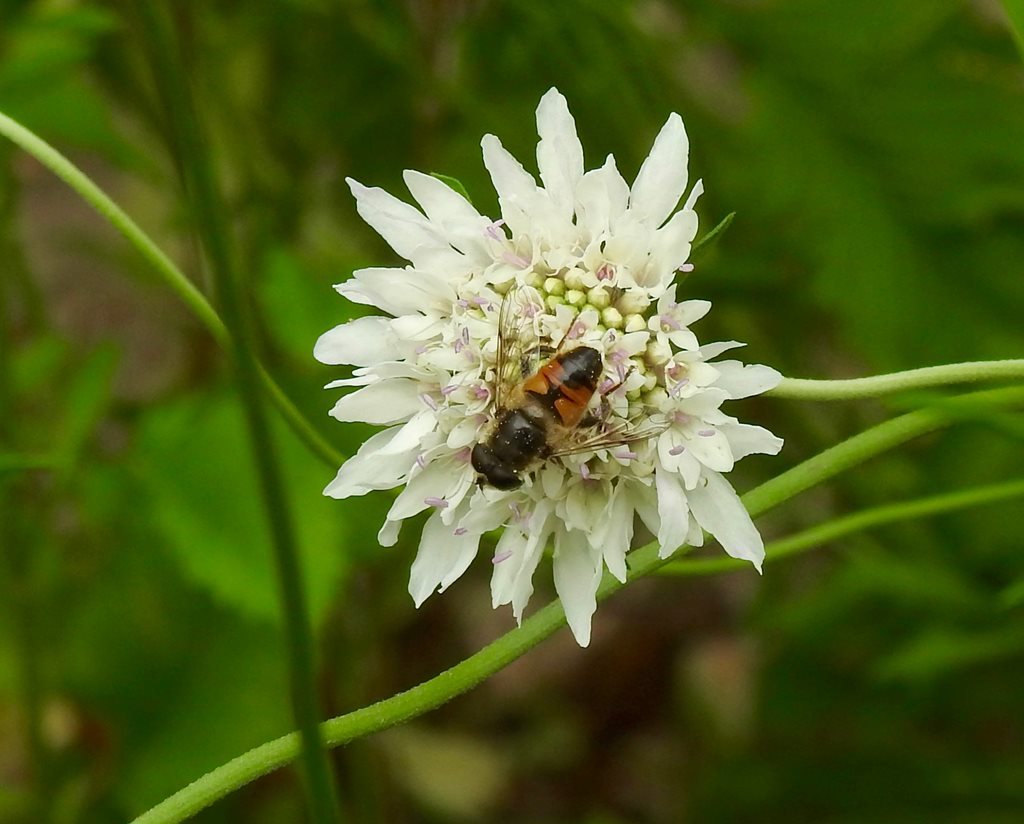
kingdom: Animalia
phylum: Arthropoda
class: Insecta
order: Diptera
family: Syrphidae
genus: Eristalis
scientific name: Eristalis tenax
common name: Drone fly
